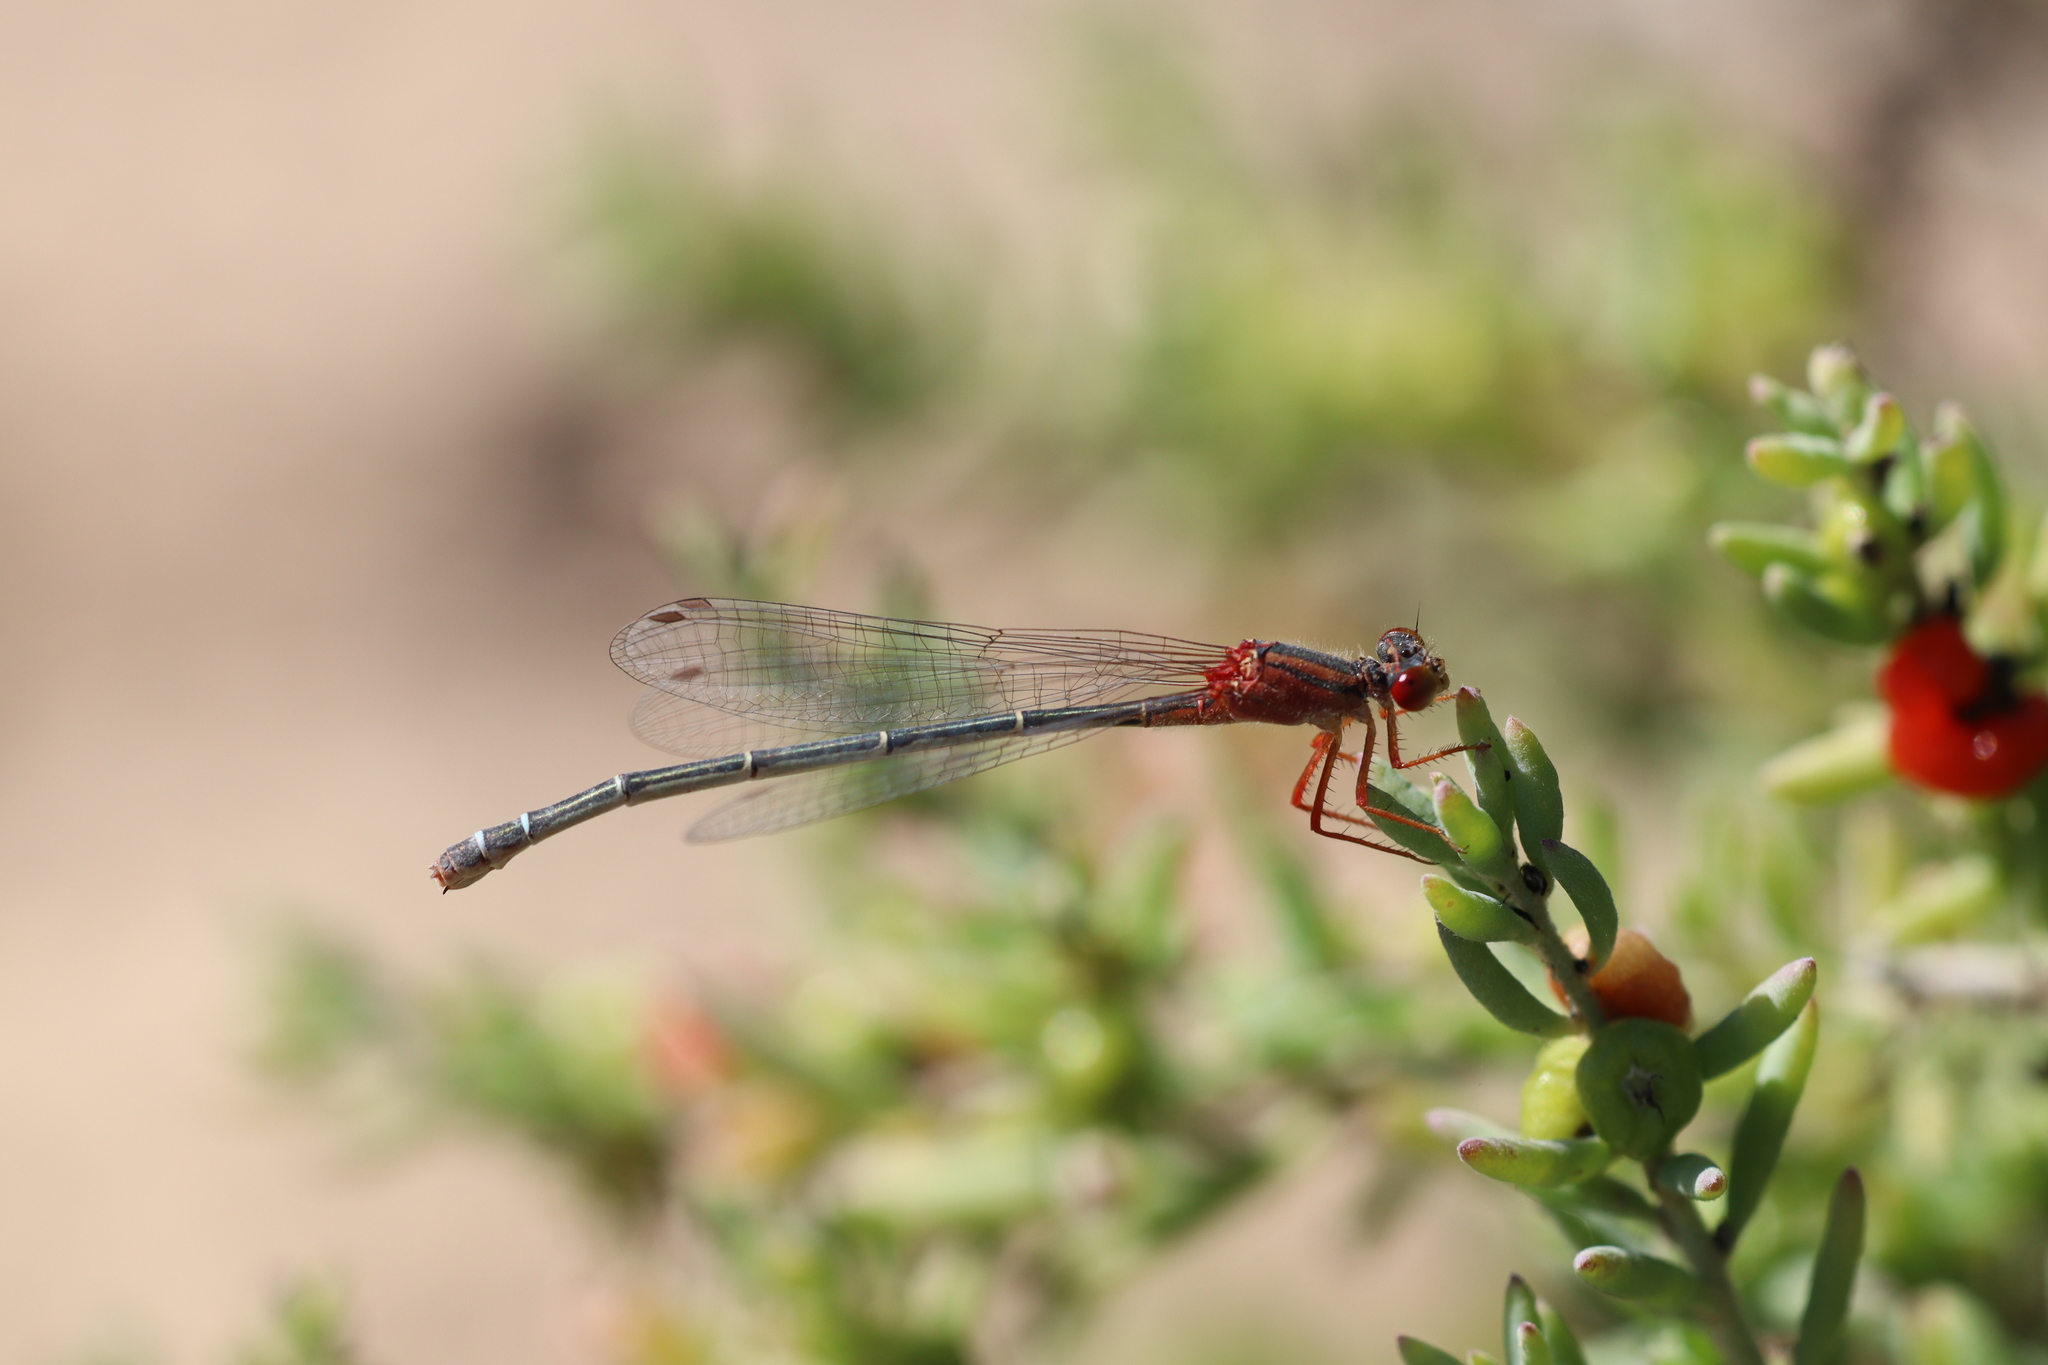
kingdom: Animalia
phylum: Arthropoda
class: Insecta
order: Odonata
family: Coenagrionidae
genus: Xanthagrion
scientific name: Xanthagrion erythroneurum
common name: Red and blue damsel
